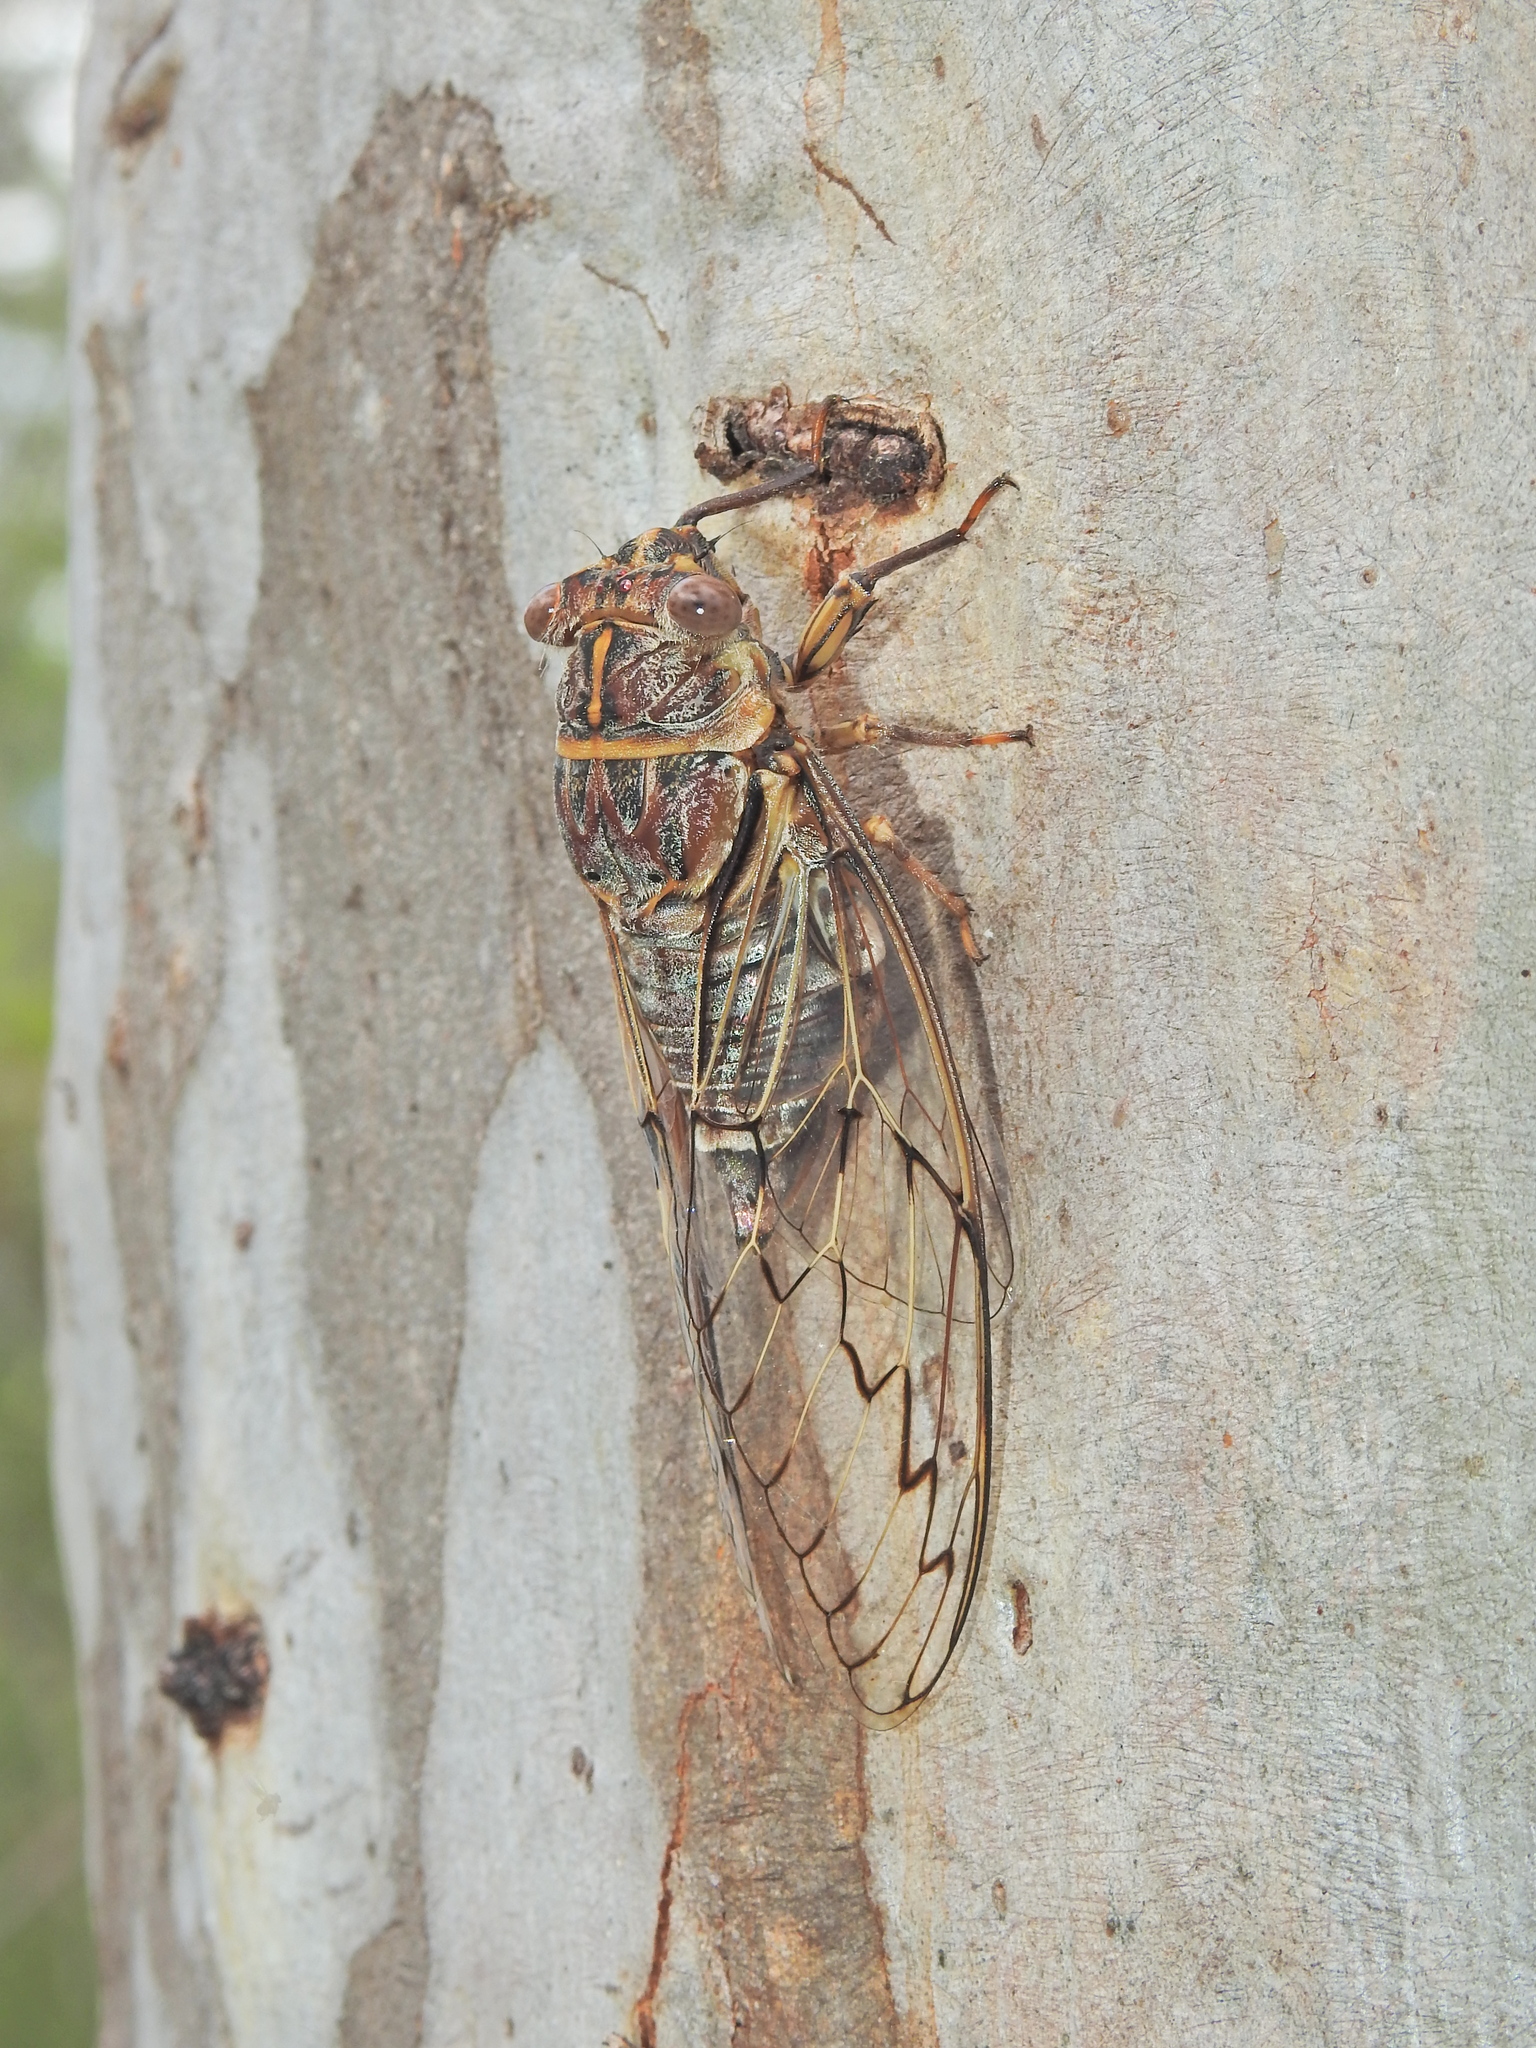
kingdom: Animalia
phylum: Arthropoda
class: Insecta
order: Hemiptera
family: Cicadidae
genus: Henicopsaltria
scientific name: Henicopsaltria eydouxii
